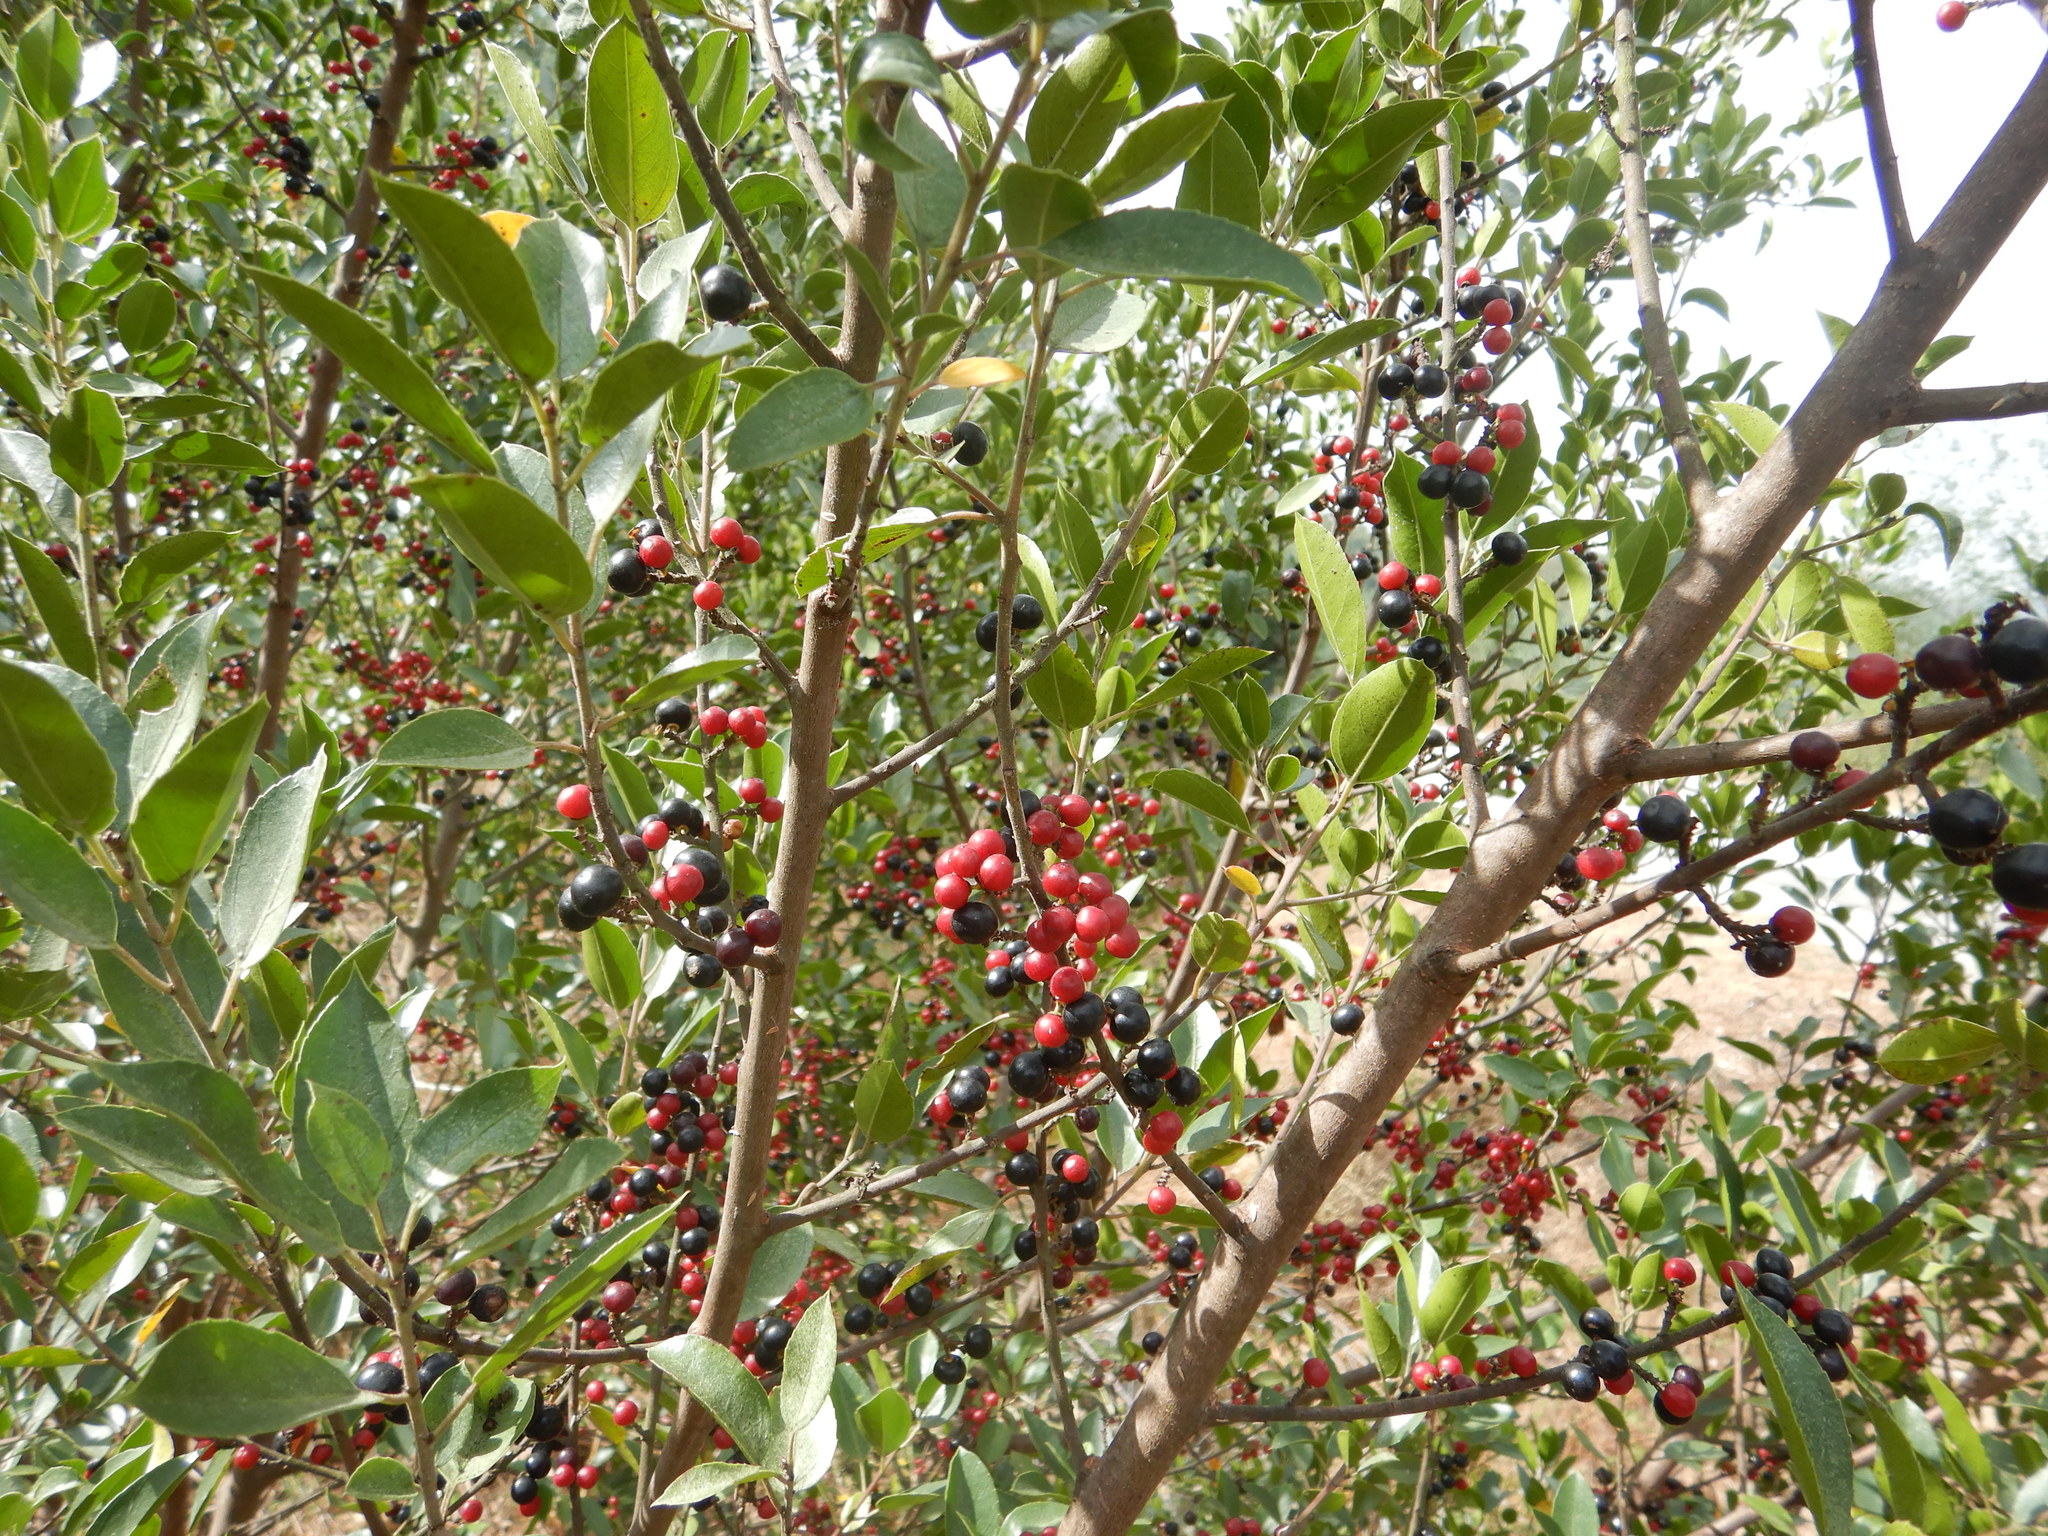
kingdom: Plantae
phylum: Tracheophyta
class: Magnoliopsida
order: Rosales
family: Rhamnaceae
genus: Rhamnus
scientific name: Rhamnus alaternus
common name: Mediterranean buckthorn
